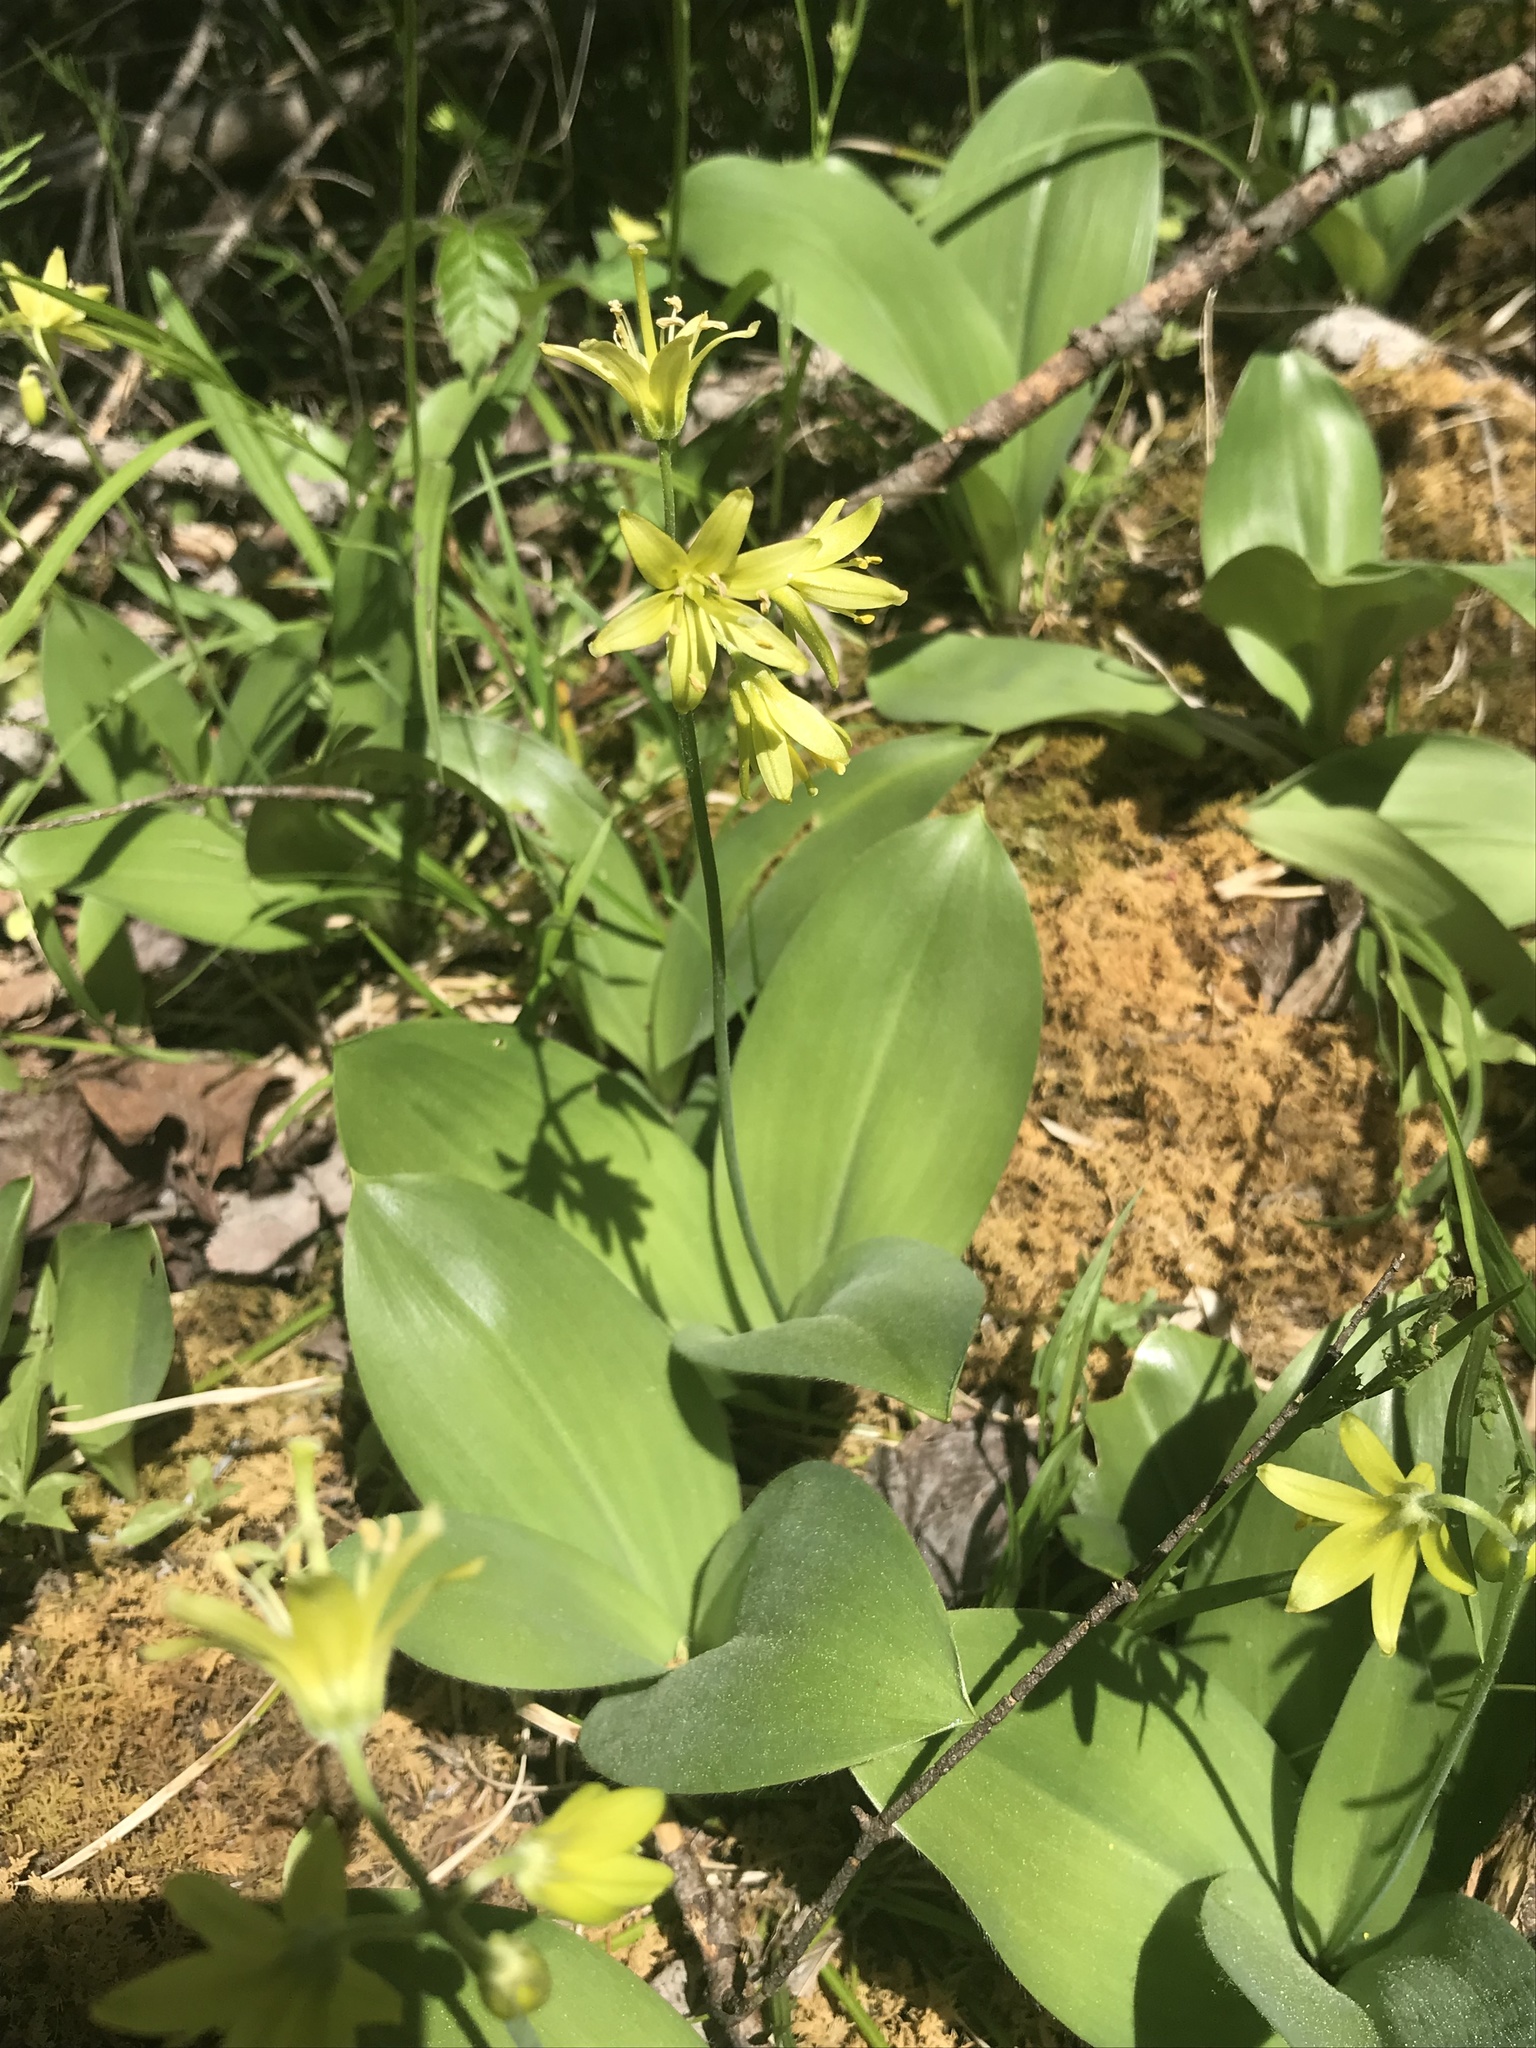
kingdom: Plantae
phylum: Tracheophyta
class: Liliopsida
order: Liliales
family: Liliaceae
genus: Clintonia
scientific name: Clintonia borealis
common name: Yellow clintonia
